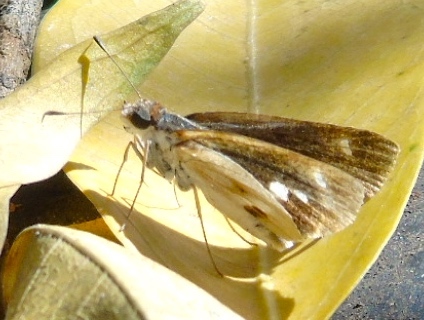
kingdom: Animalia
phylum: Arthropoda
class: Insecta
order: Lepidoptera
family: Hesperiidae
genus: Troyus
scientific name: Troyus fantasos
